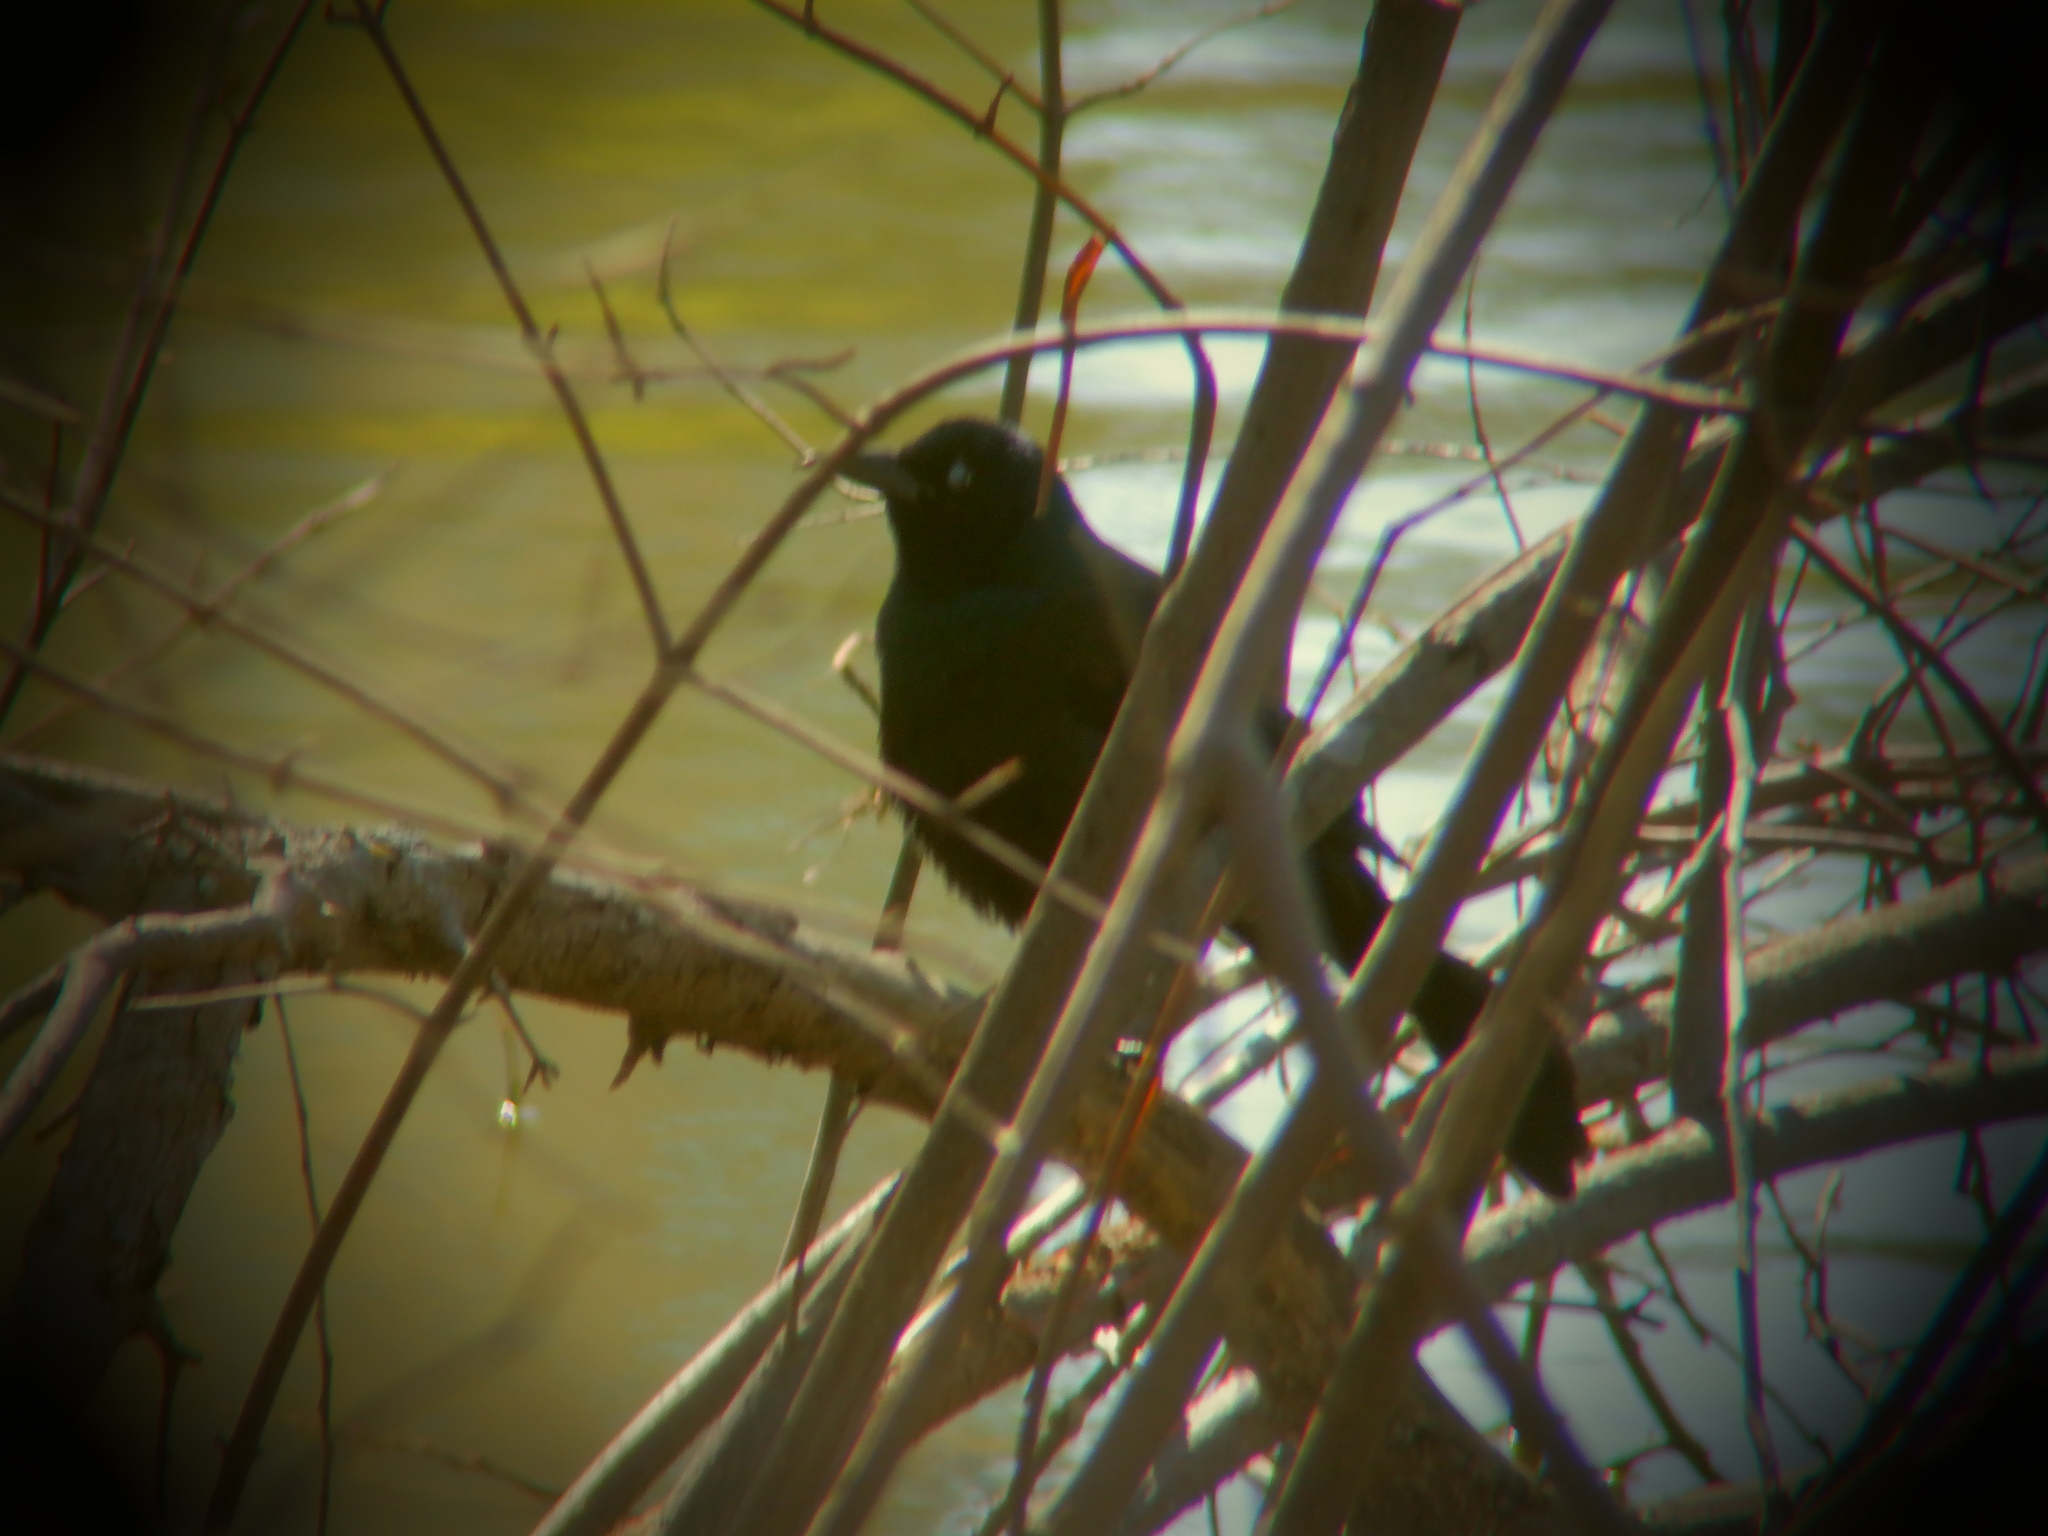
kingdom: Animalia
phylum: Chordata
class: Aves
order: Passeriformes
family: Icteridae
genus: Quiscalus
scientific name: Quiscalus quiscula
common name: Common grackle
